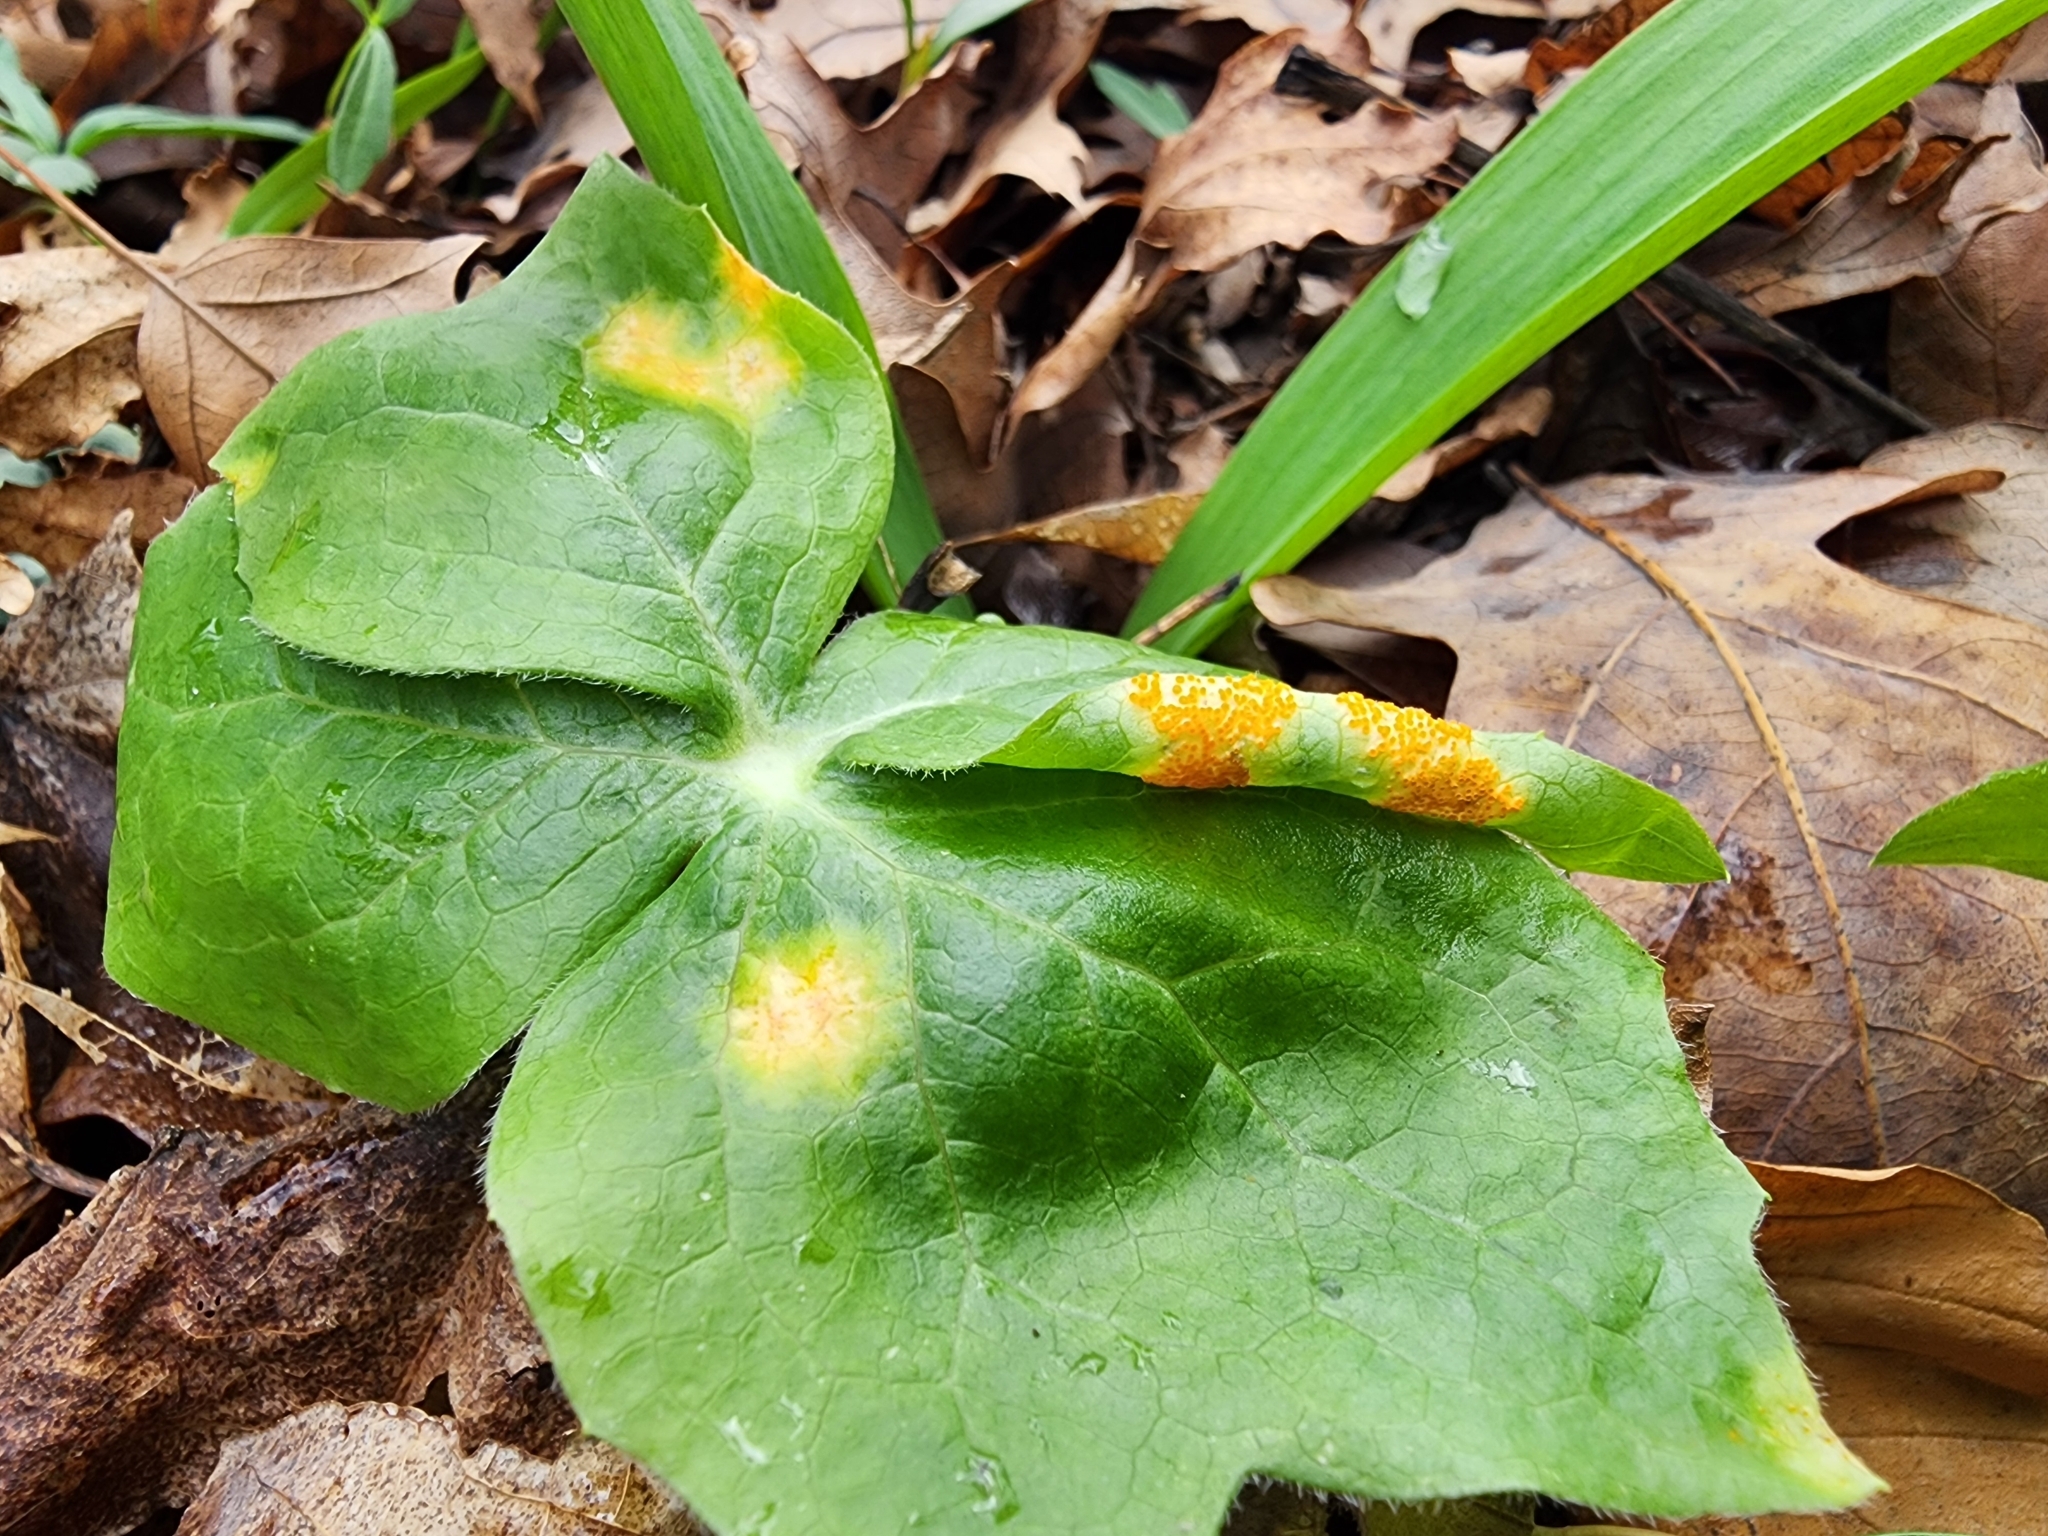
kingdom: Plantae
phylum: Tracheophyta
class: Magnoliopsida
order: Ranunculales
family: Berberidaceae
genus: Podophyllum
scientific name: Podophyllum peltatum
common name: Wild mandrake
